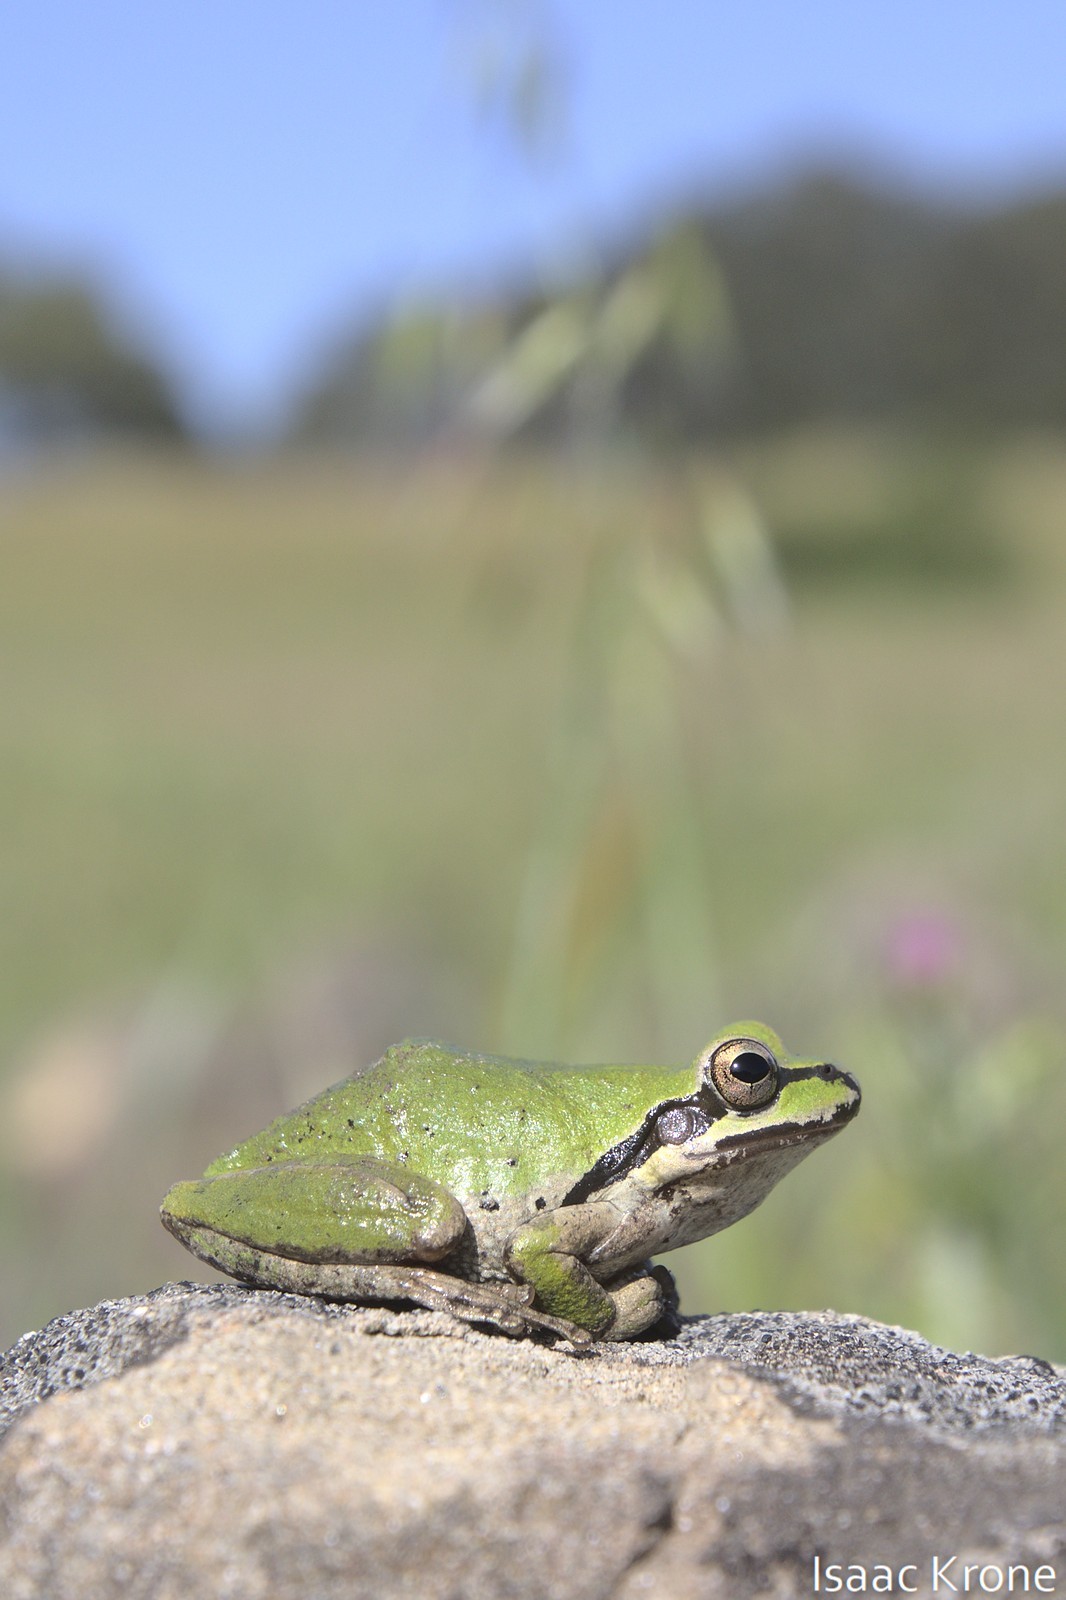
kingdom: Animalia
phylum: Chordata
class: Amphibia
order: Anura
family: Hylidae
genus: Pseudacris
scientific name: Pseudacris regilla
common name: Pacific chorus frog
